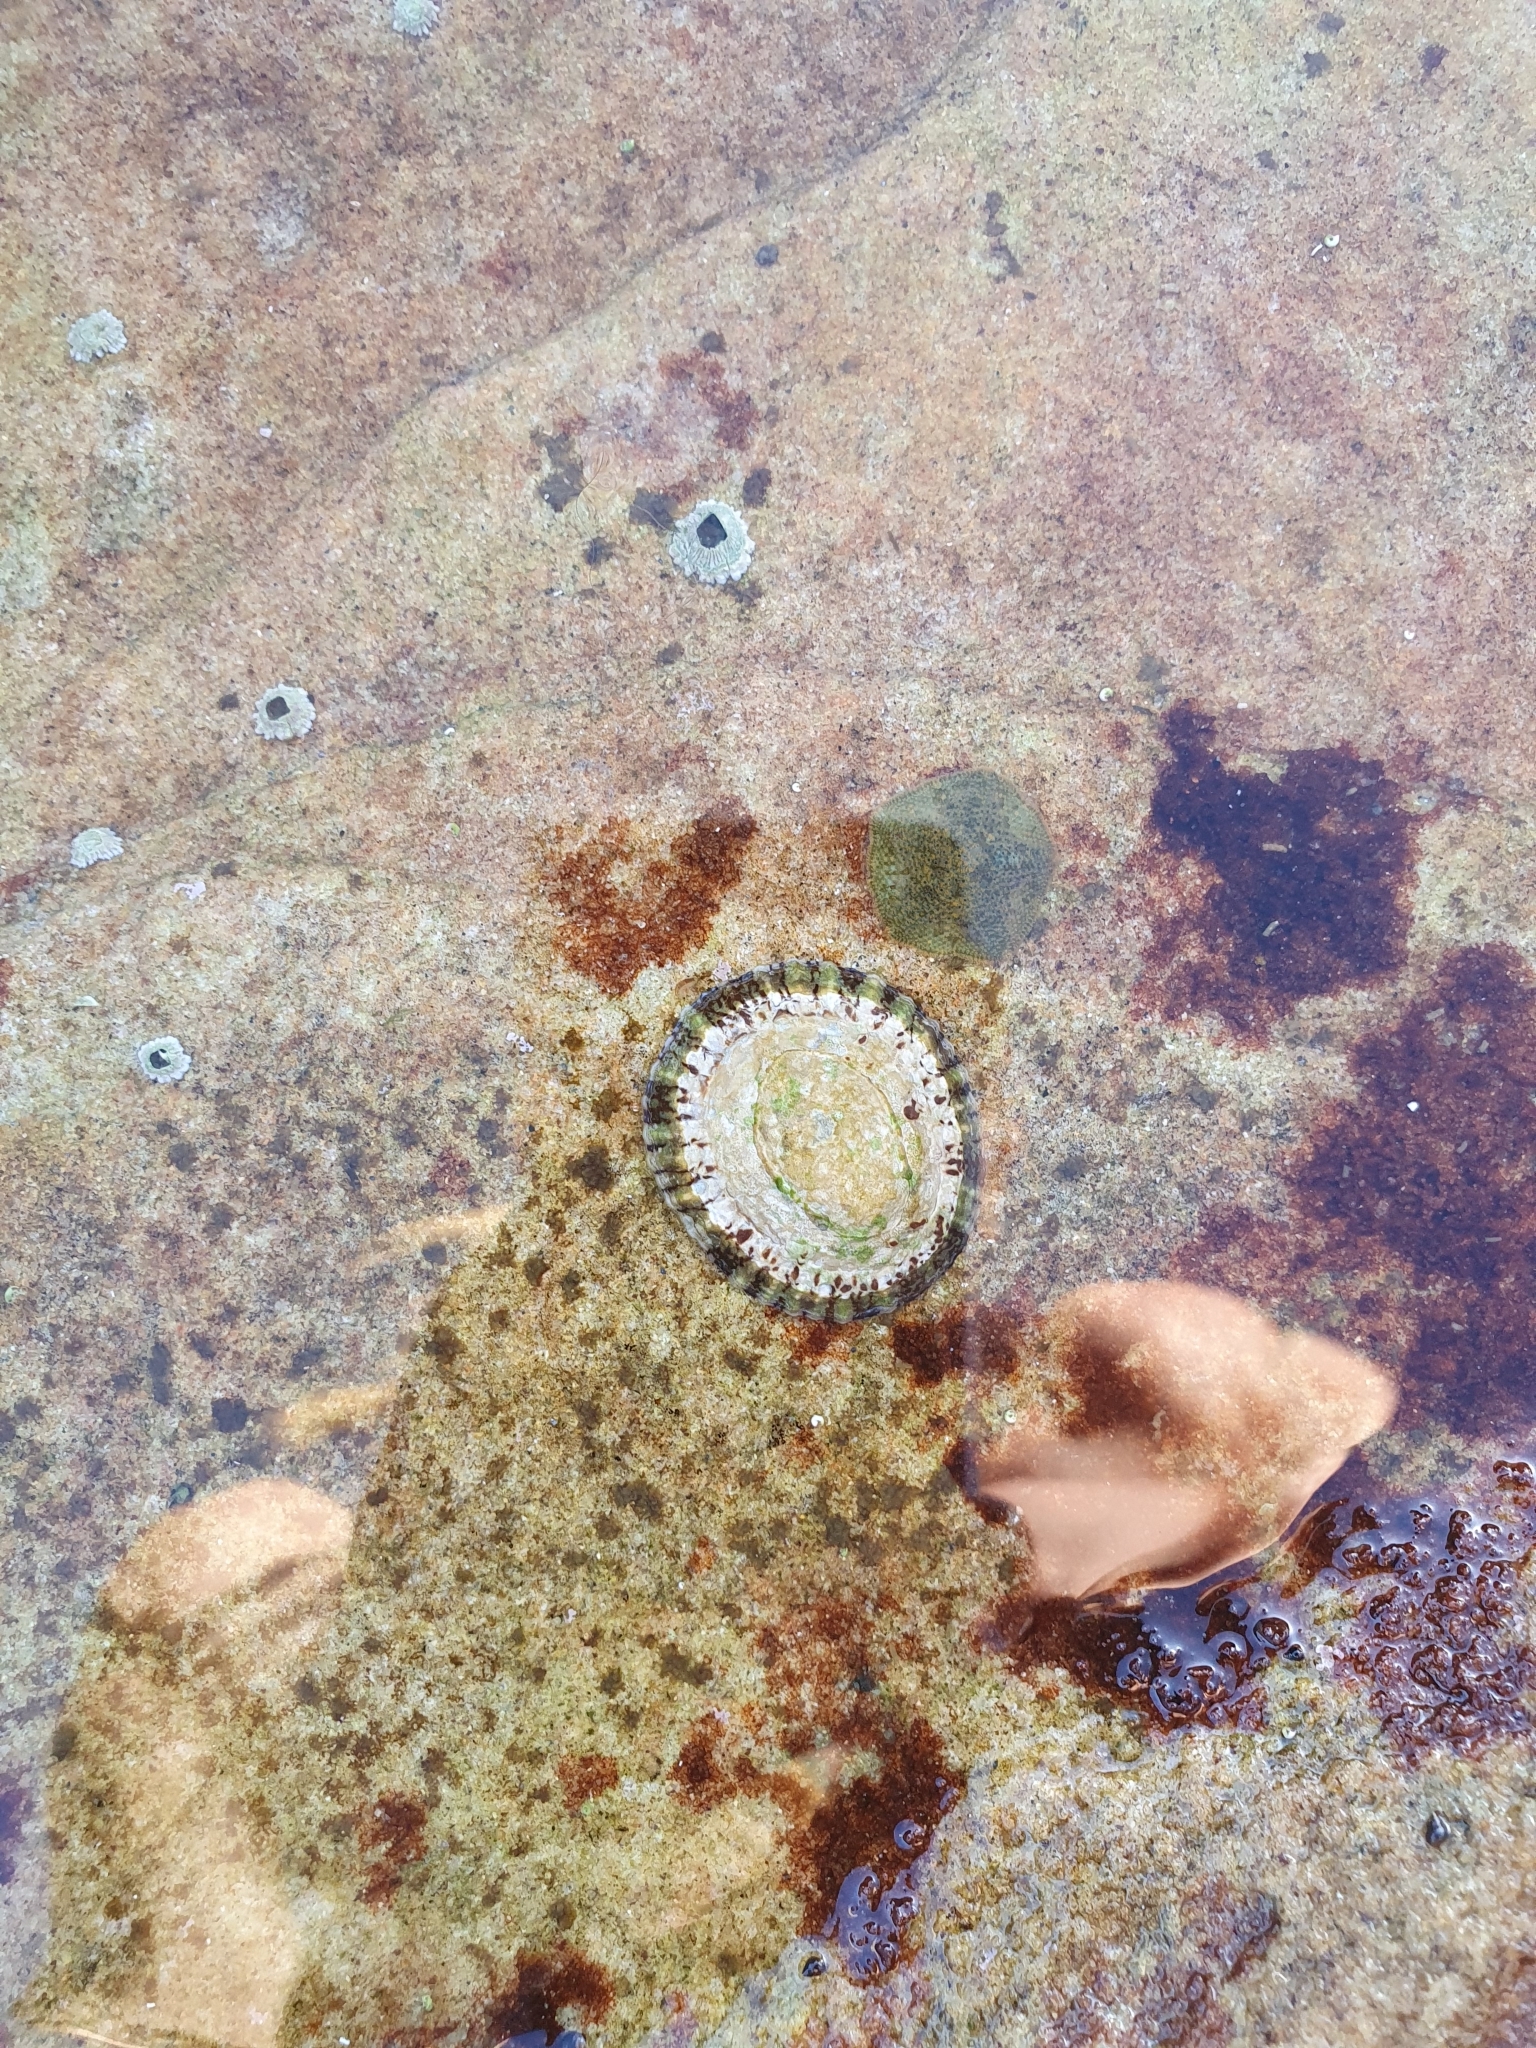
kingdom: Animalia
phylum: Mollusca
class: Gastropoda
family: Nacellidae
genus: Cellana
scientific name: Cellana tramoserica
